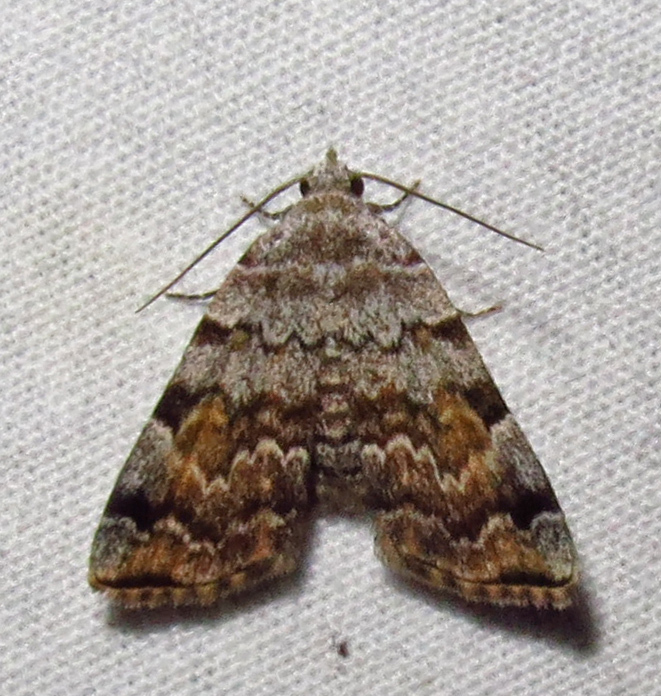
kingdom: Animalia
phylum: Arthropoda
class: Insecta
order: Lepidoptera
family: Erebidae
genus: Idia
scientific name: Idia americalis
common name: American idia moth
